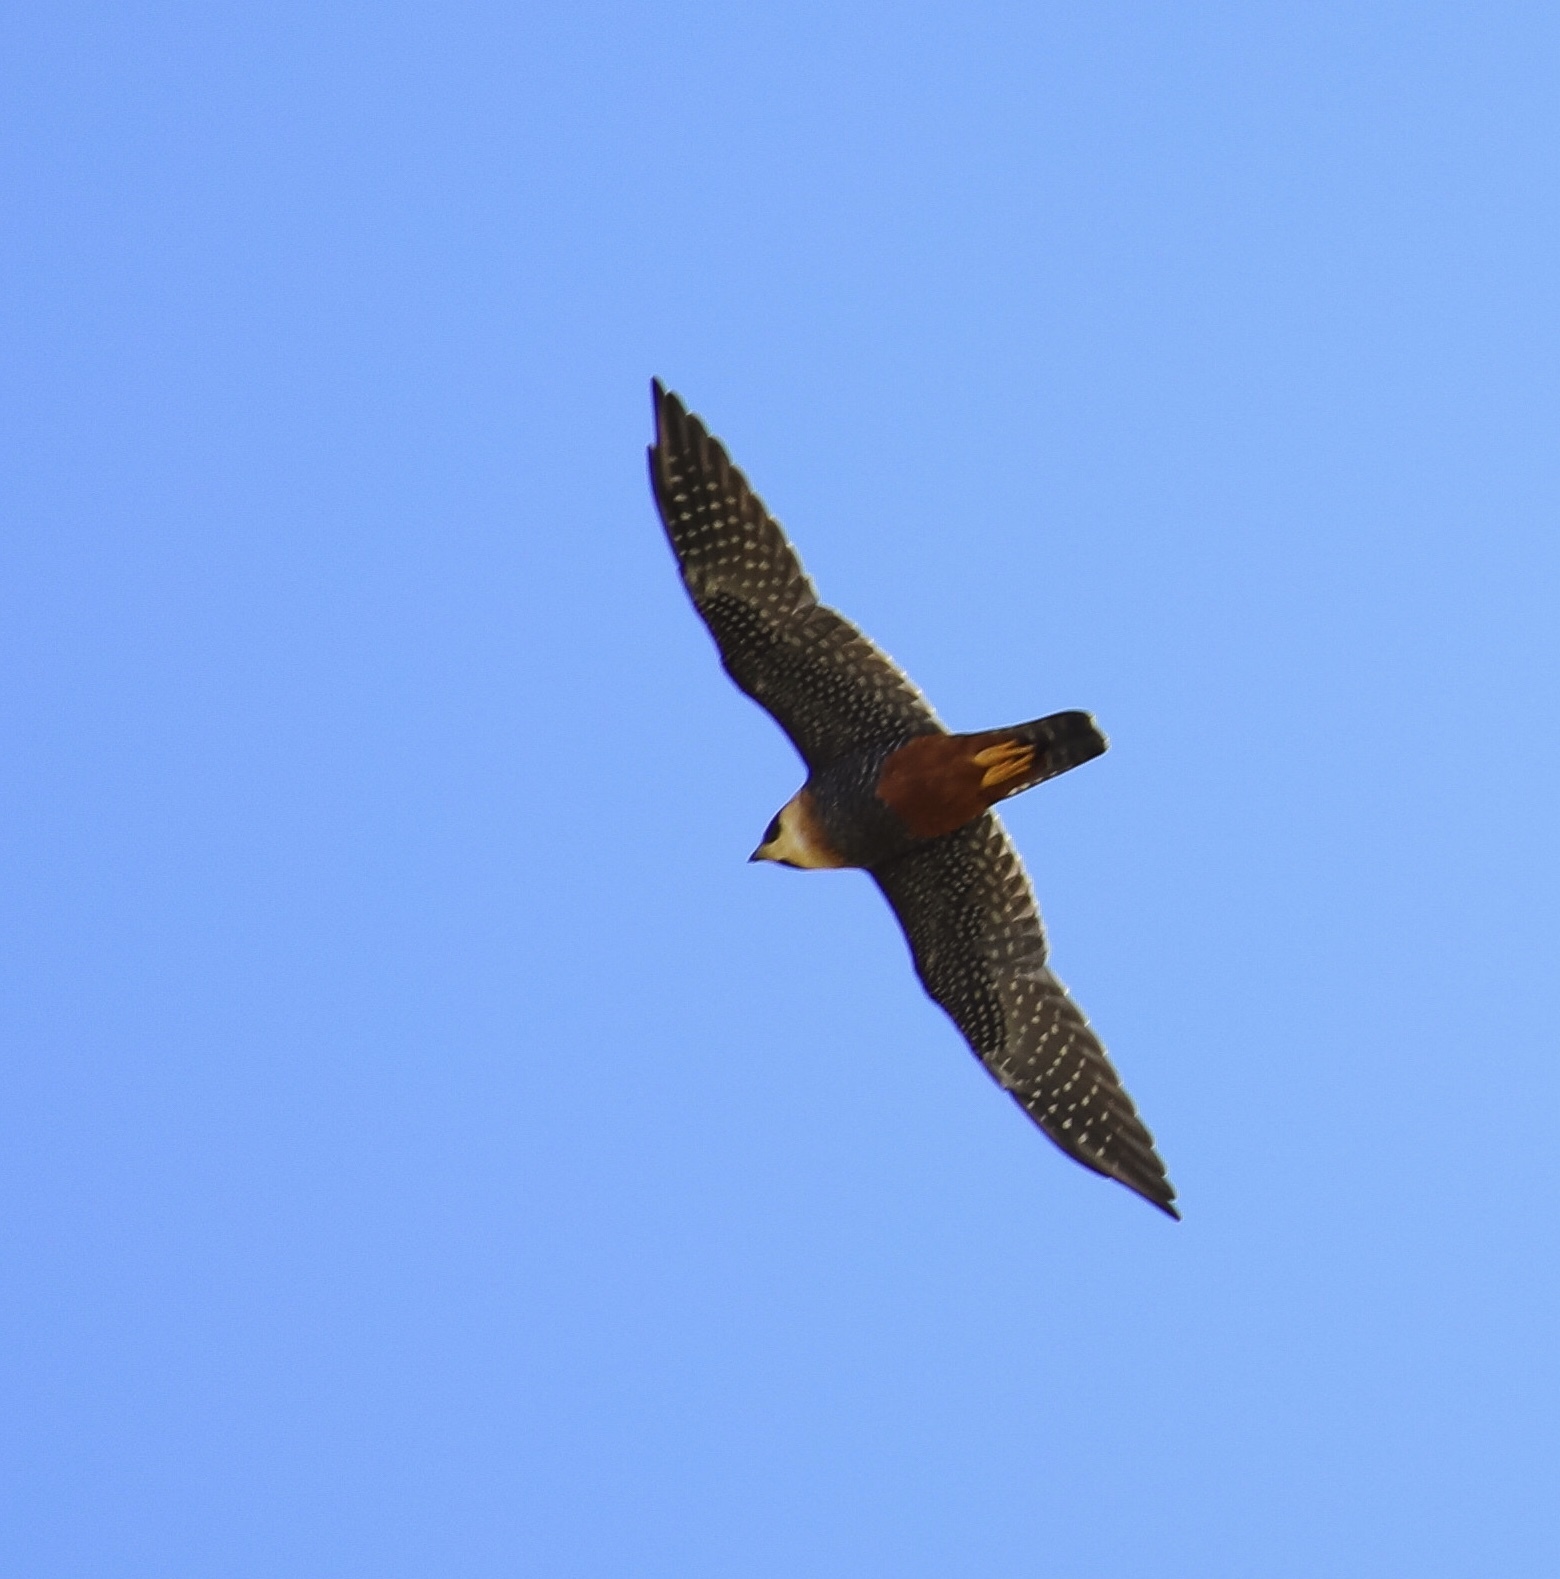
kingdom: Animalia
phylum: Chordata
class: Aves
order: Falconiformes
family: Falconidae
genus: Falco
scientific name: Falco rufigularis
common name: Bat falcon
